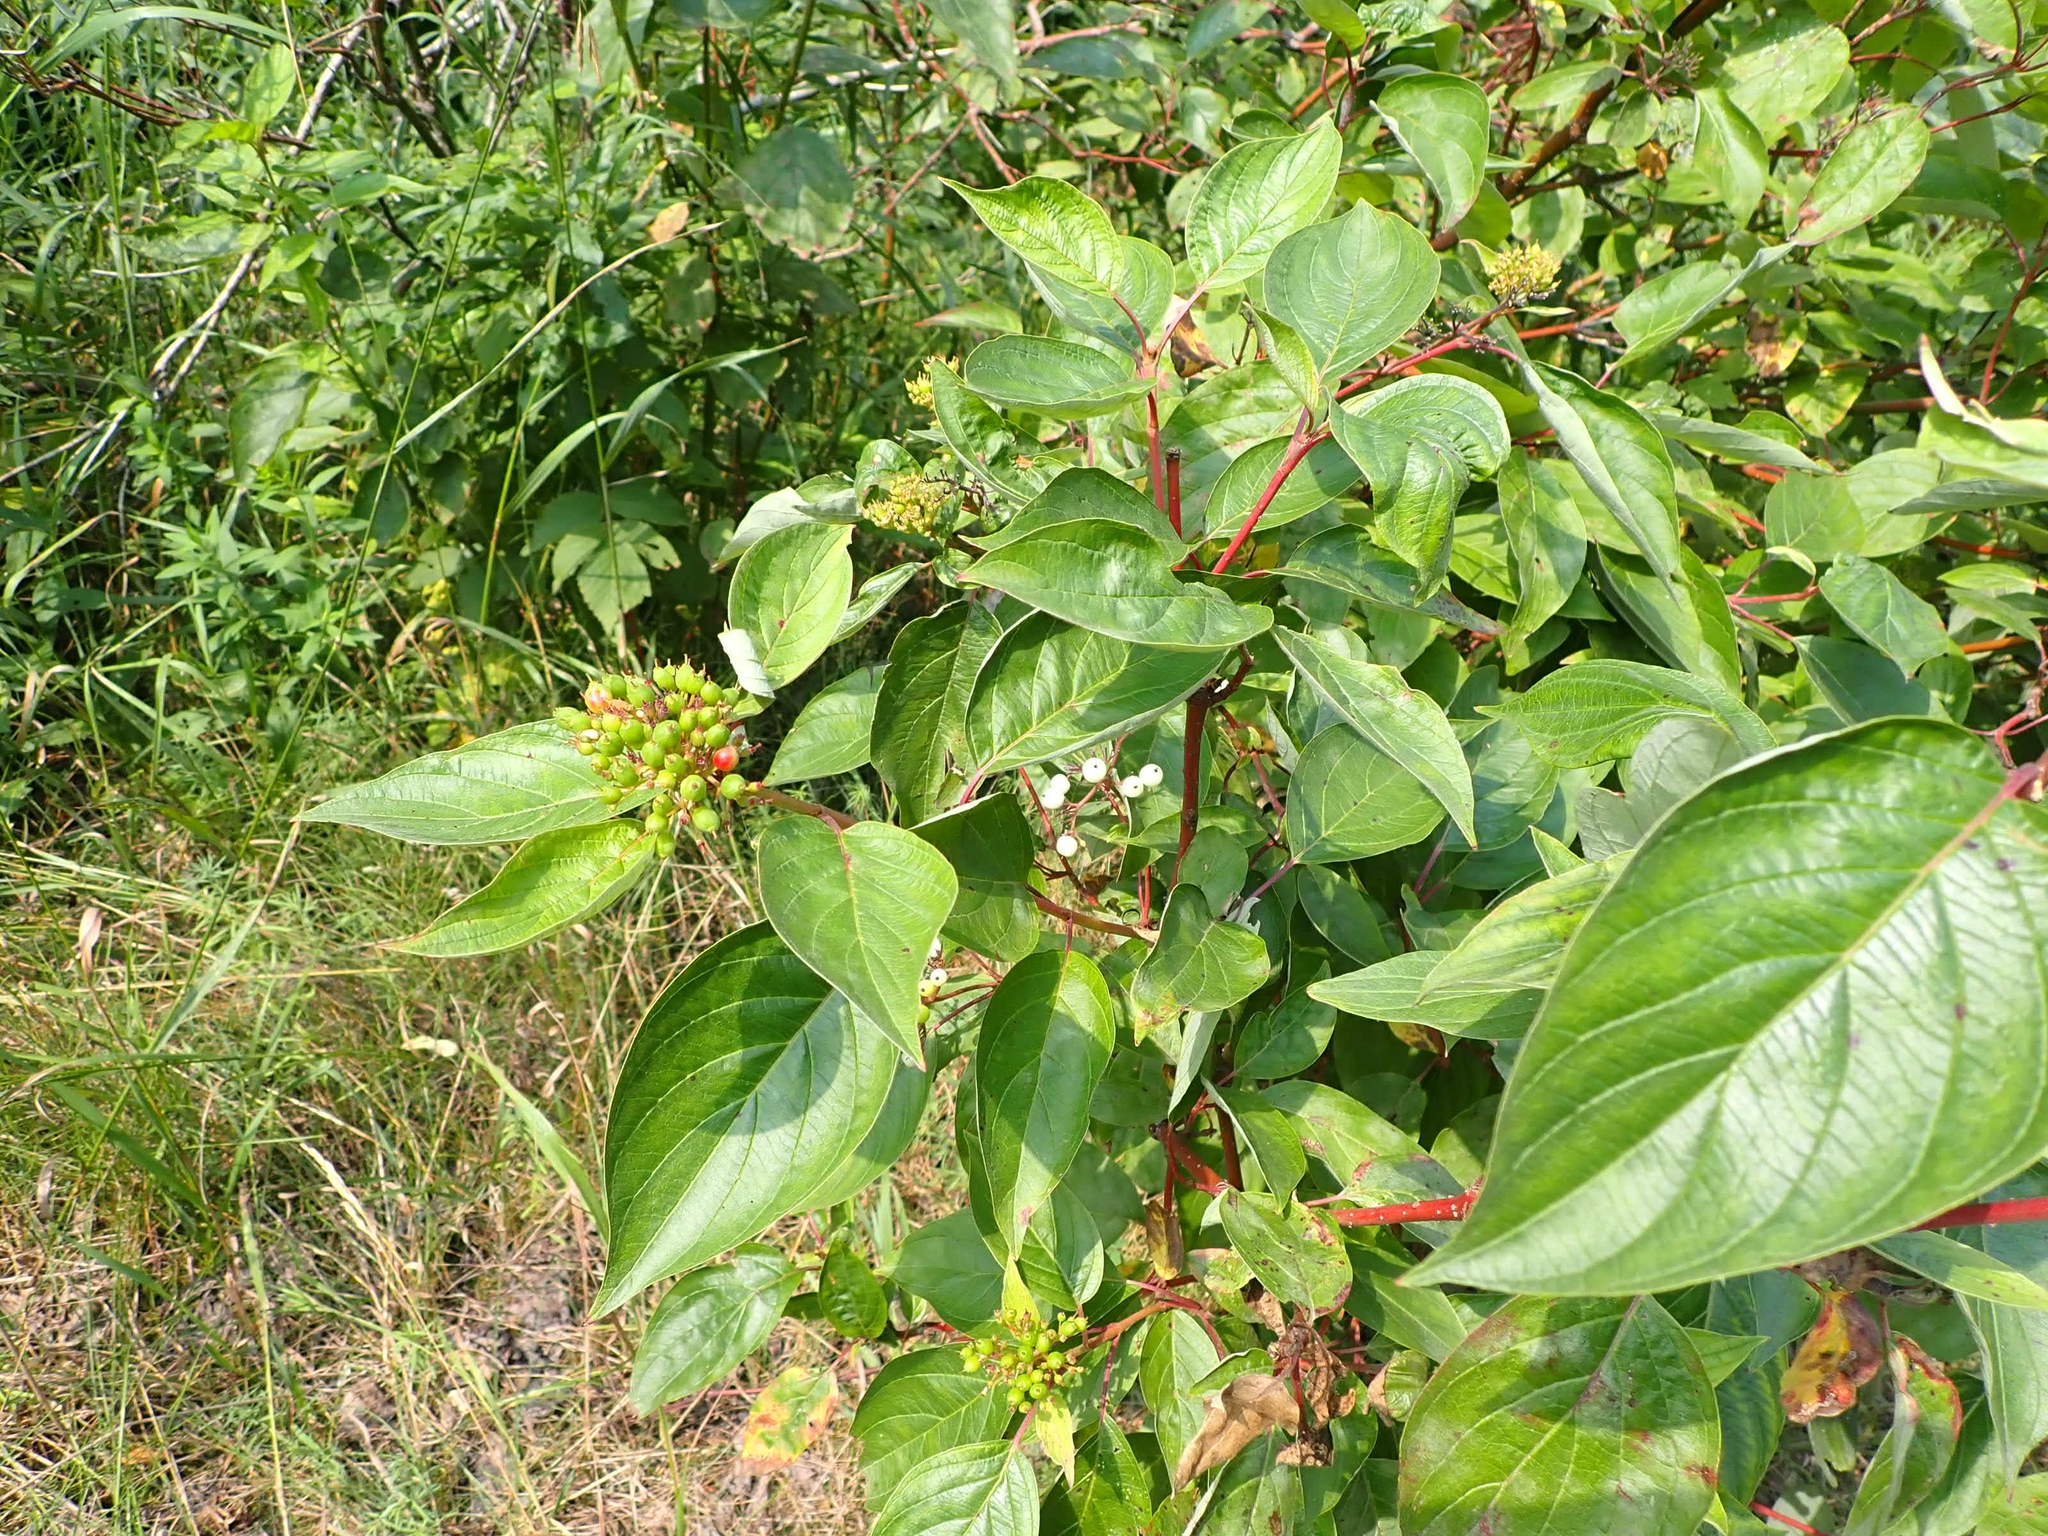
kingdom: Plantae
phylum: Tracheophyta
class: Magnoliopsida
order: Cornales
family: Cornaceae
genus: Cornus
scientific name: Cornus sericea
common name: Red-osier dogwood
